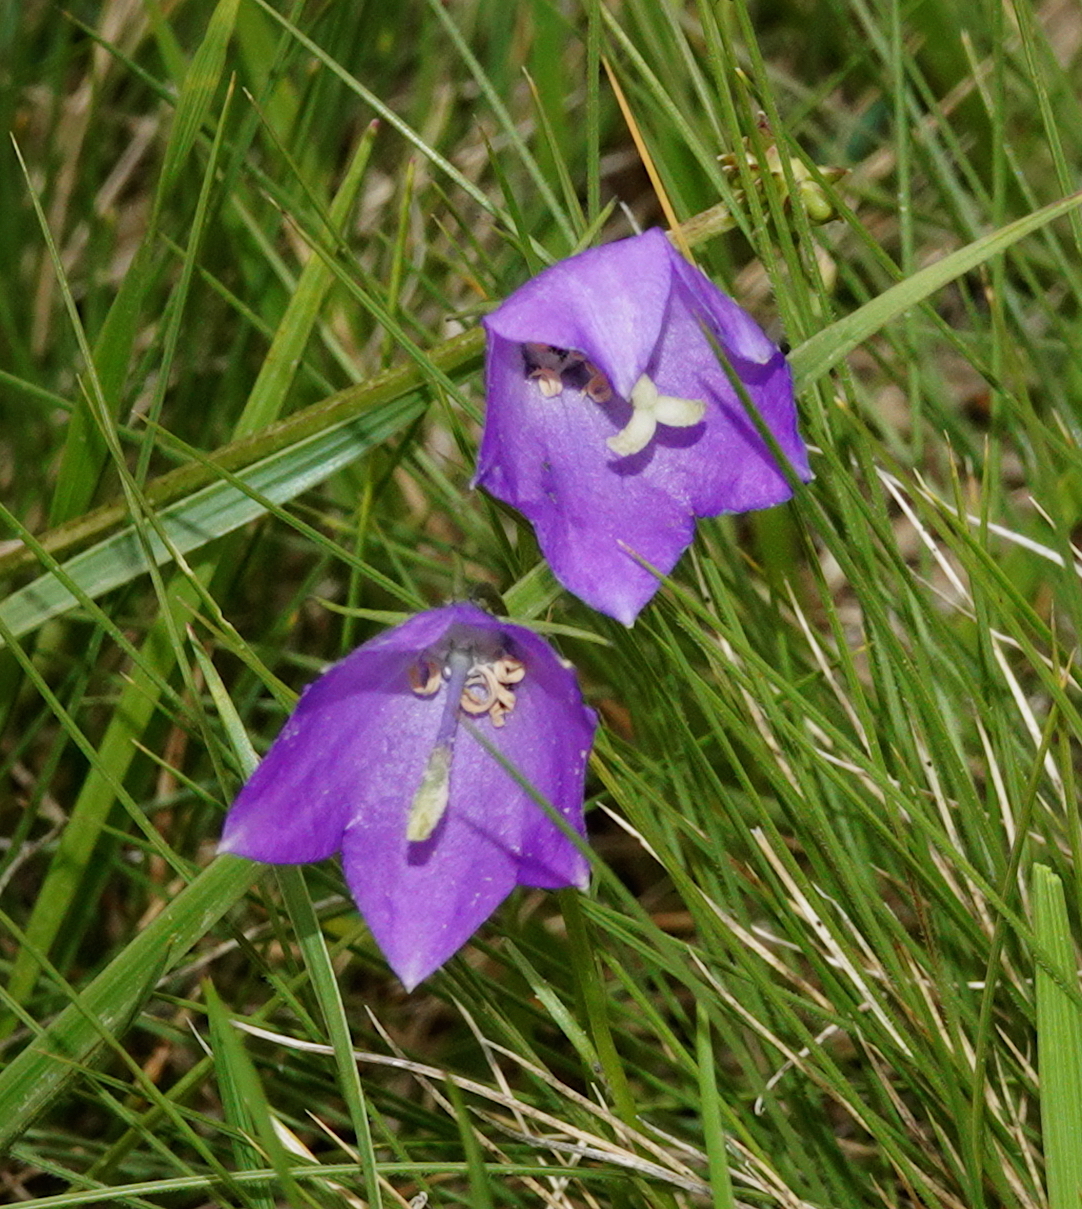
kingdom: Plantae
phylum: Tracheophyta
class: Magnoliopsida
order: Asterales
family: Campanulaceae
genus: Campanula
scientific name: Campanula herminii
